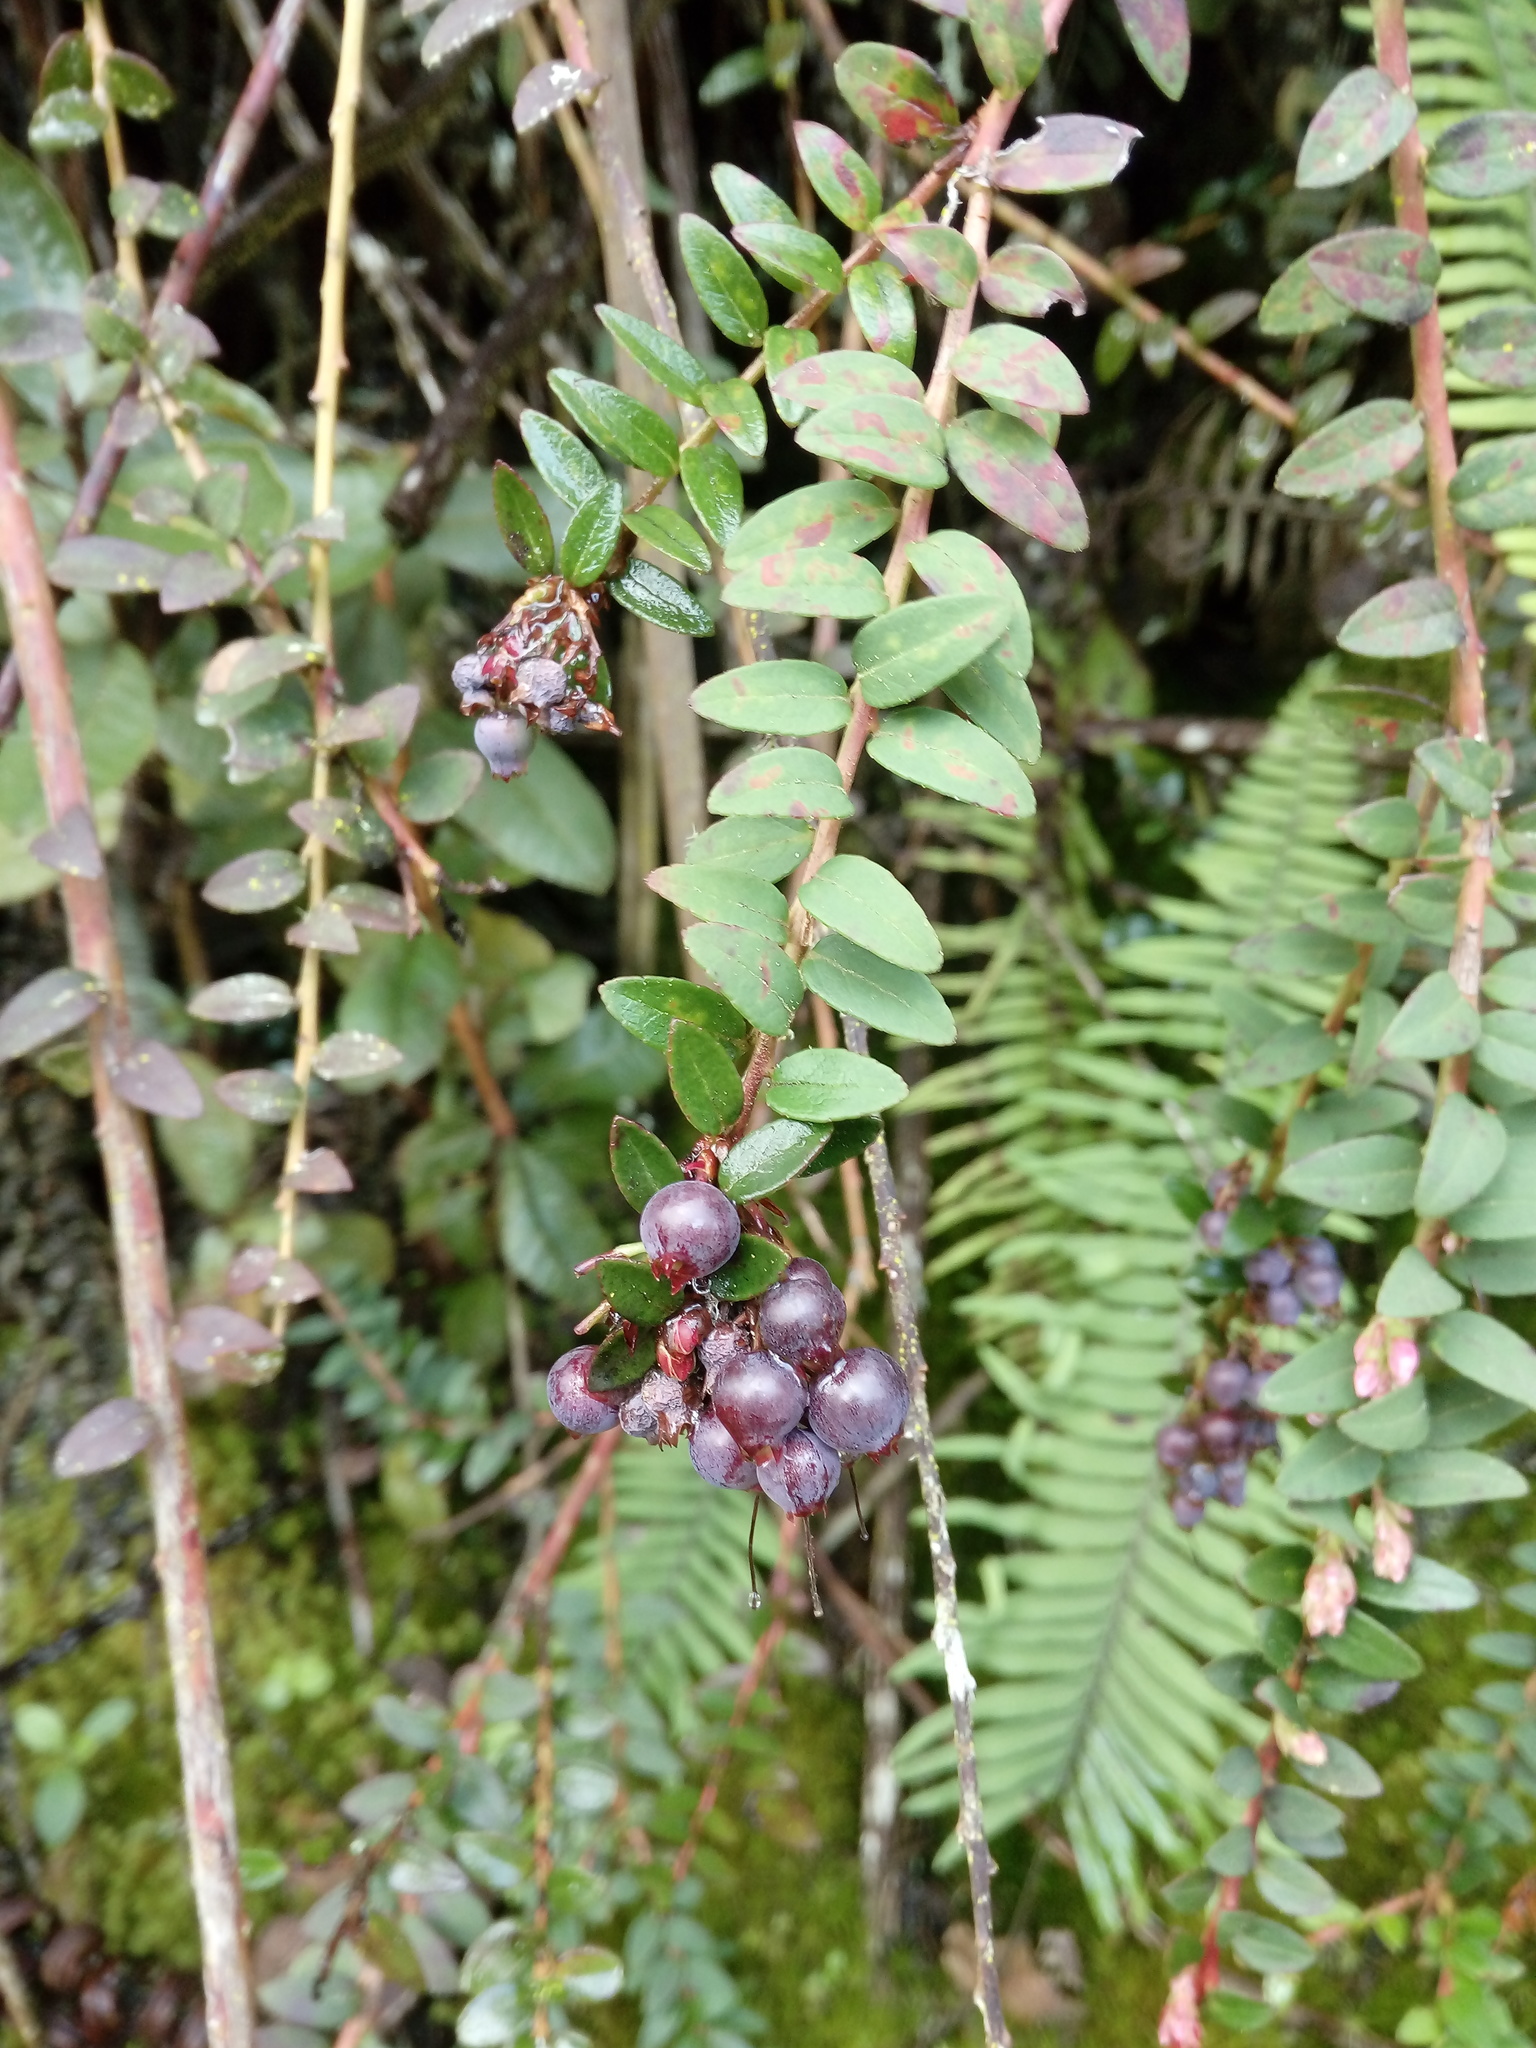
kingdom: Plantae
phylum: Tracheophyta
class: Magnoliopsida
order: Ericales
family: Ericaceae
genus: Vaccinium
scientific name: Vaccinium floribundum
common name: Colombian blueberry
